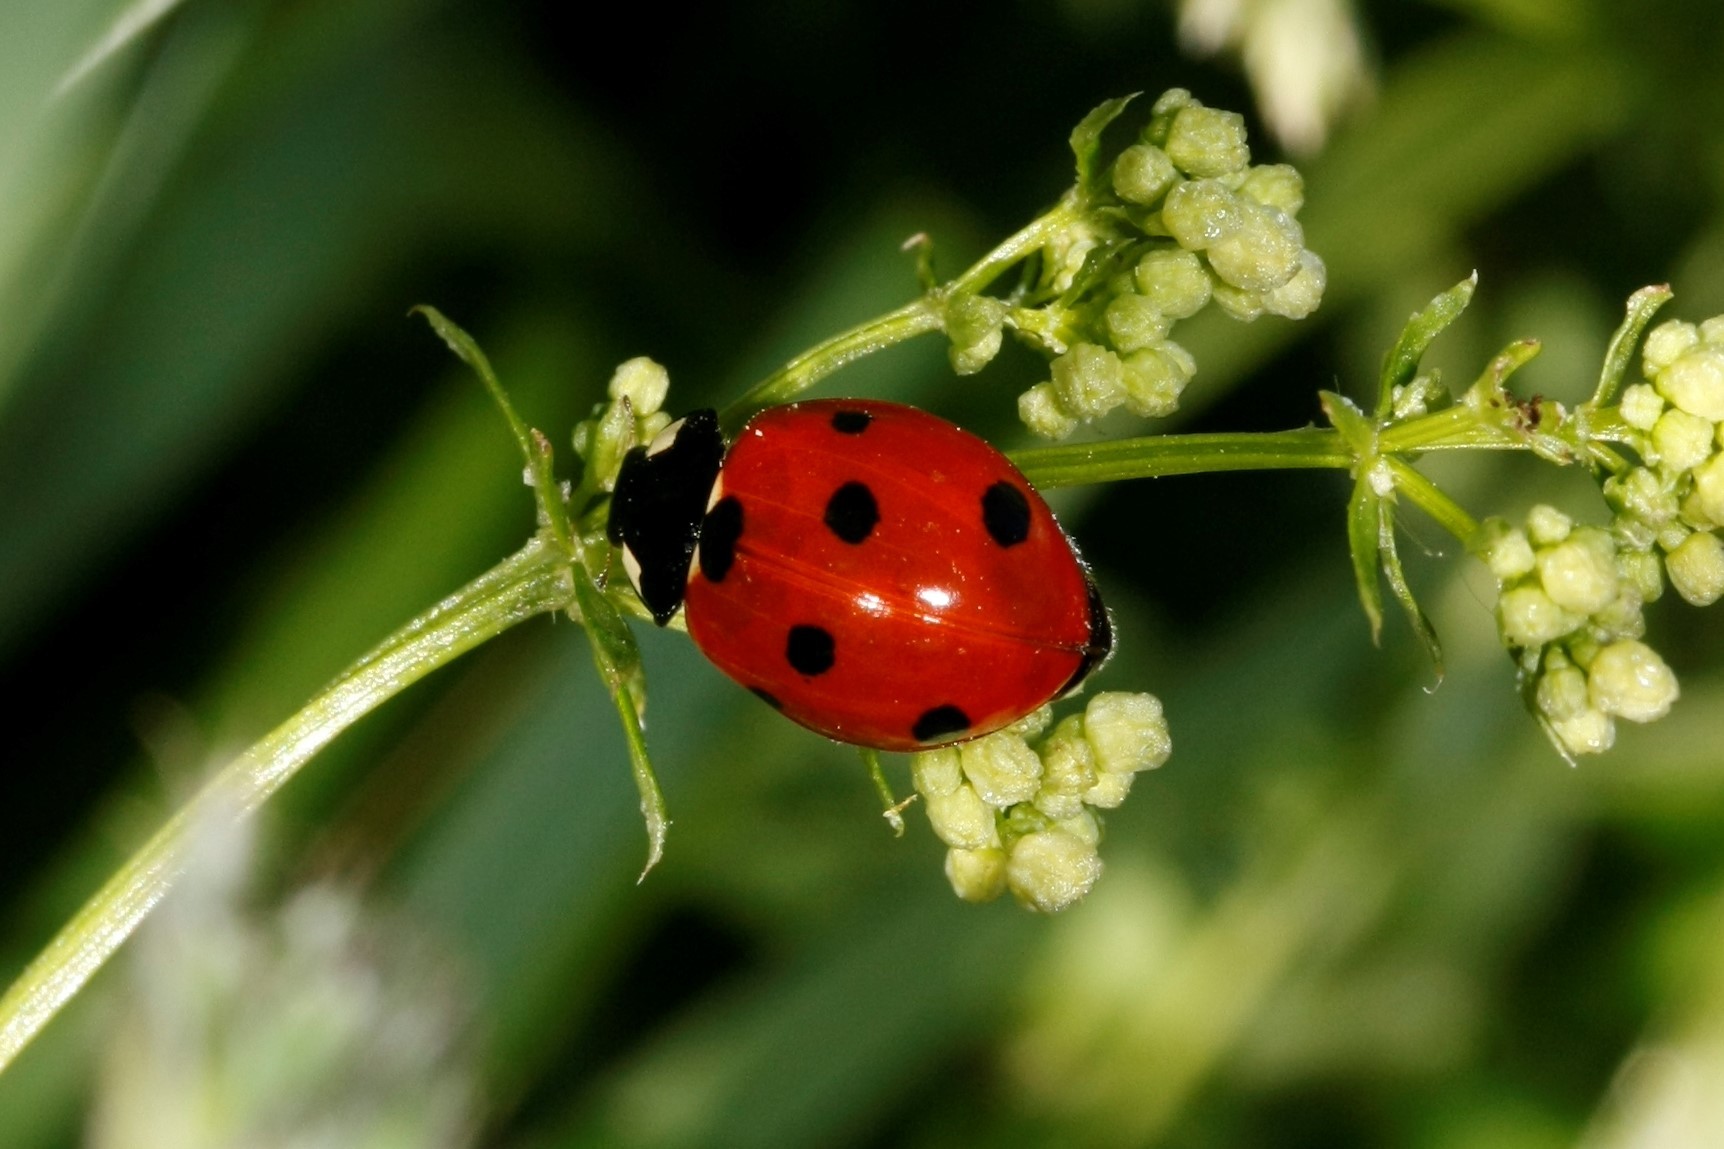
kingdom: Animalia
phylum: Arthropoda
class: Insecta
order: Coleoptera
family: Coccinellidae
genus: Coccinella
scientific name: Coccinella septempunctata
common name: Sevenspotted lady beetle
